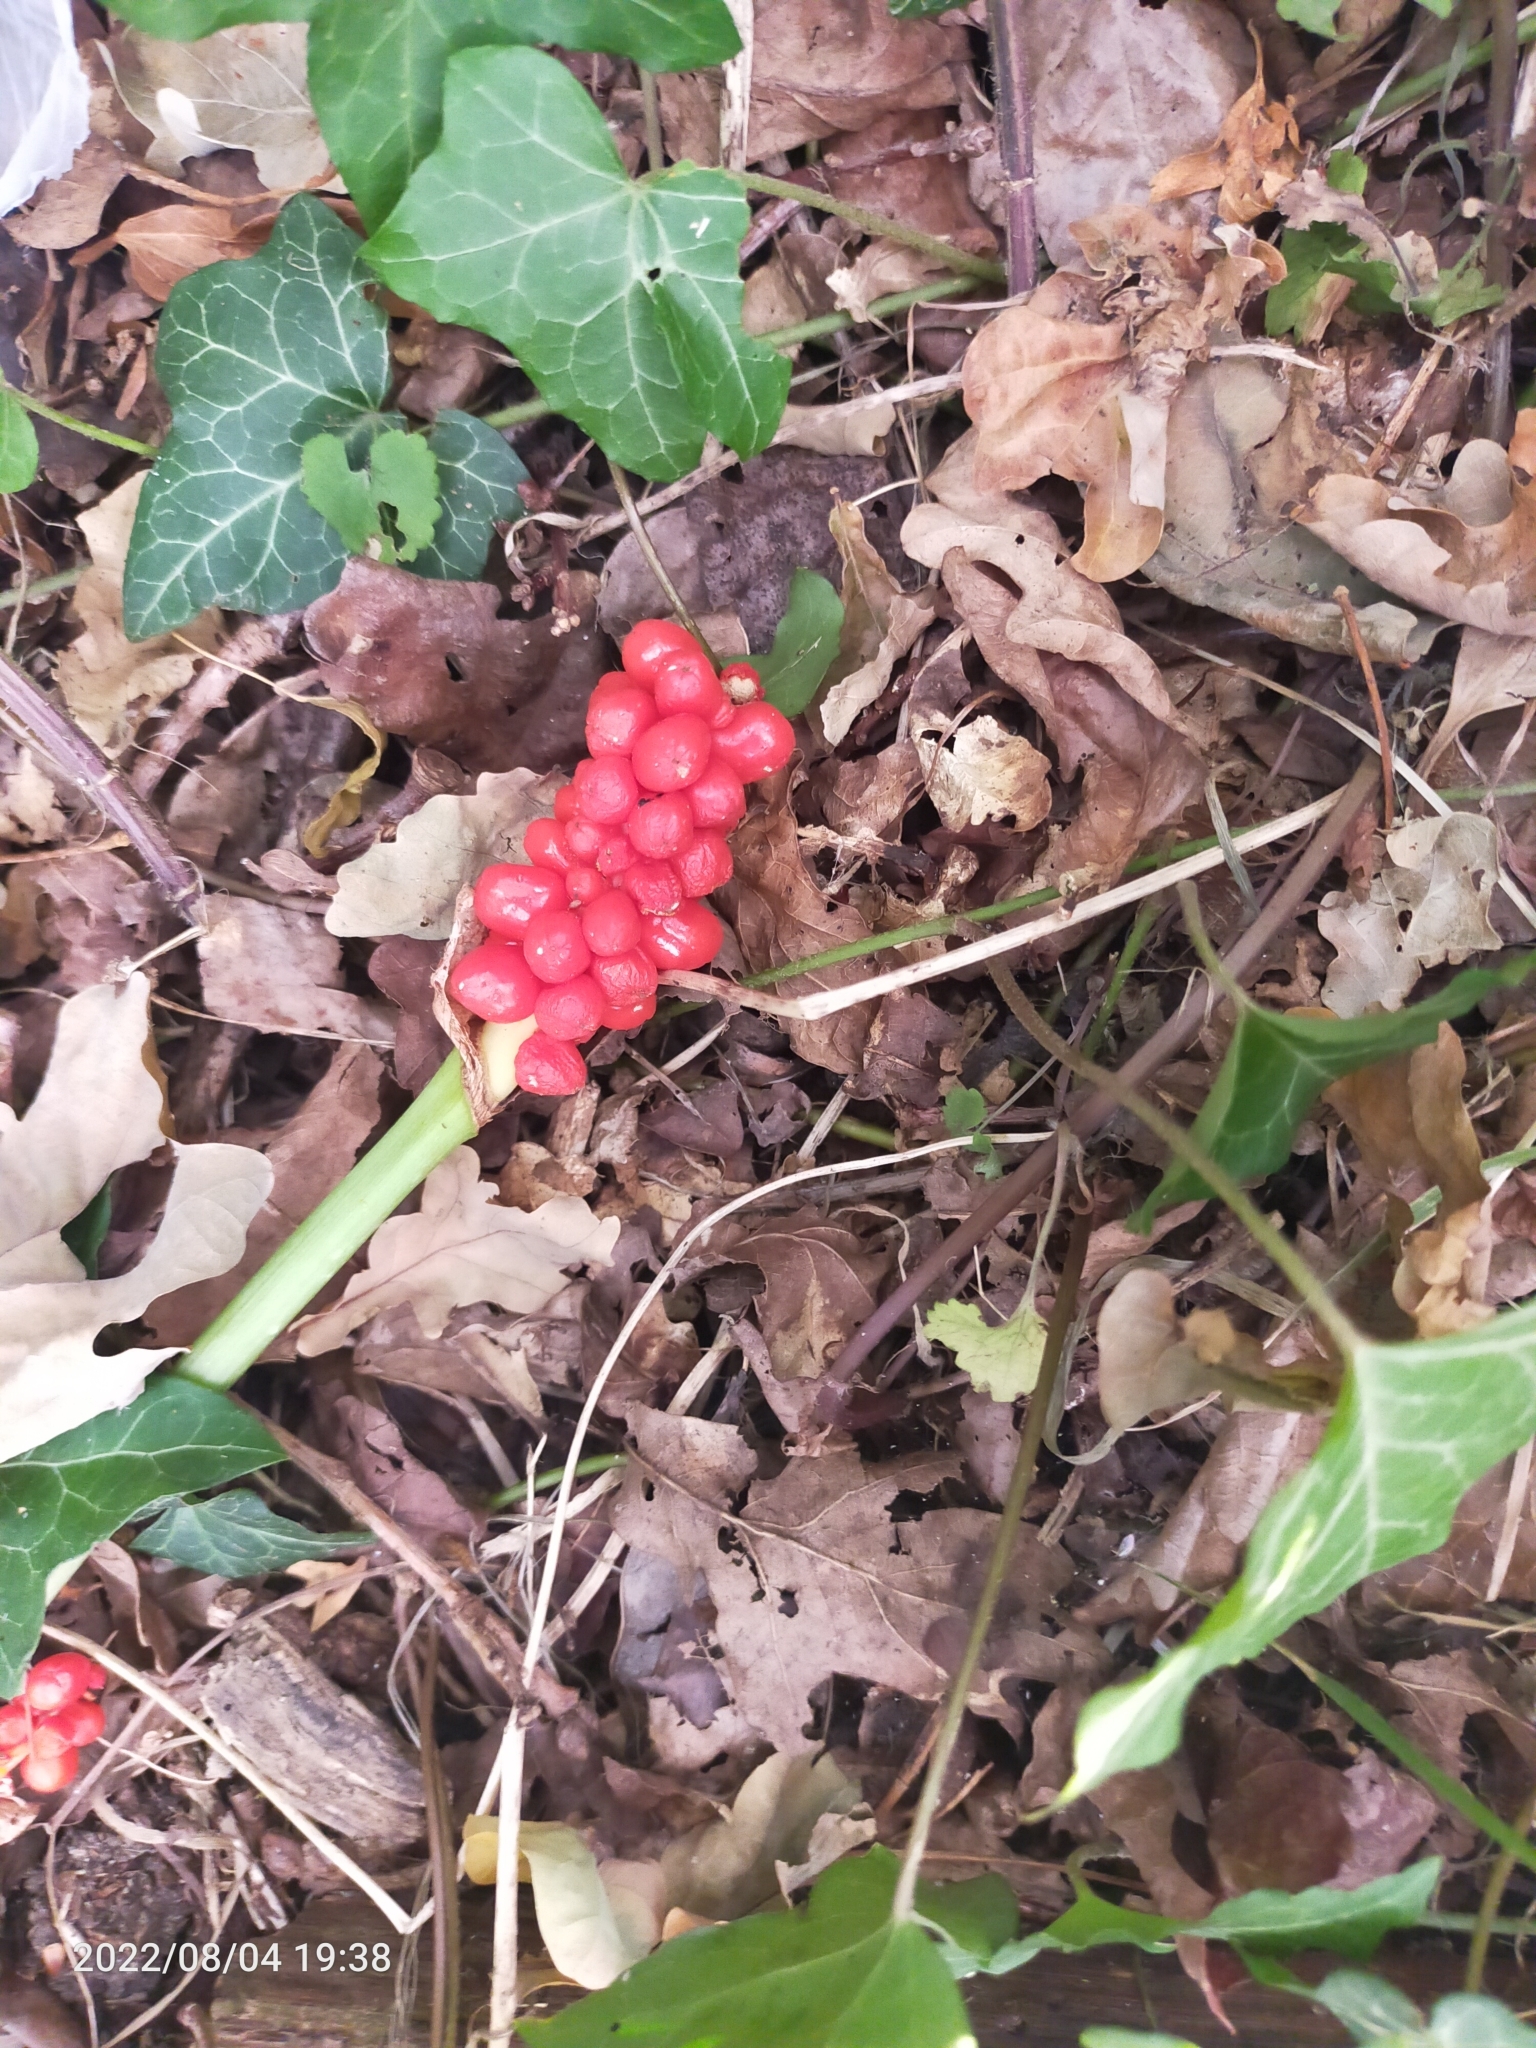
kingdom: Plantae
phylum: Tracheophyta
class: Liliopsida
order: Alismatales
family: Araceae
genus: Arum
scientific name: Arum maculatum
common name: Lords-and-ladies
